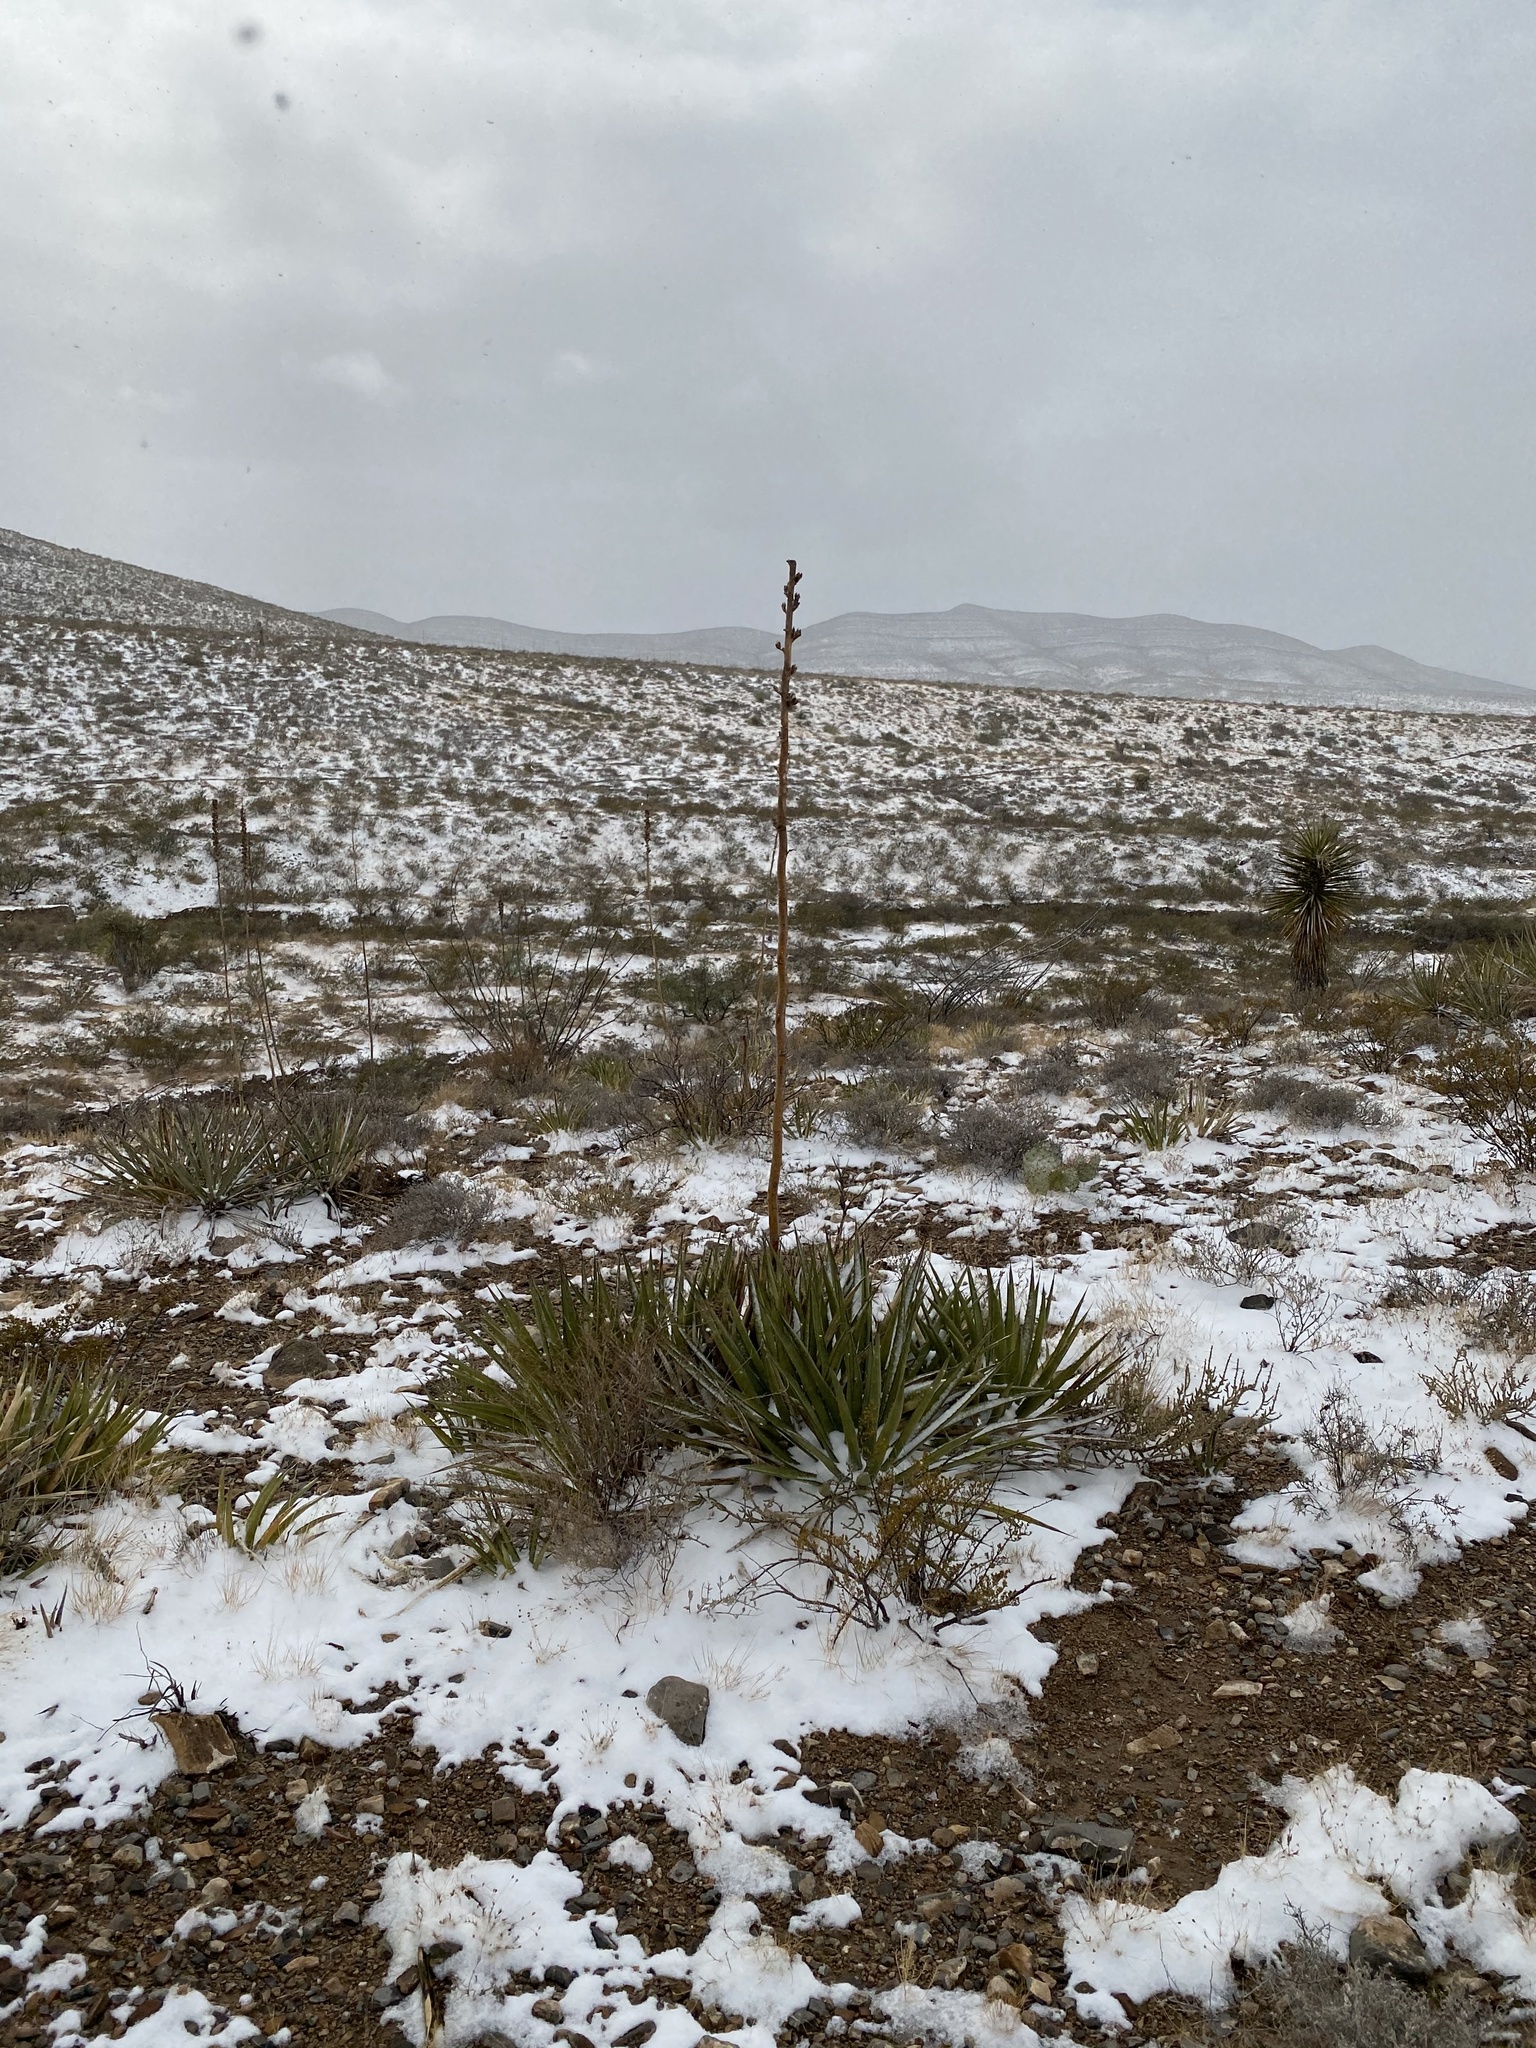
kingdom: Plantae
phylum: Tracheophyta
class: Liliopsida
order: Asparagales
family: Asparagaceae
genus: Agave
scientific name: Agave lechuguilla
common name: Lecheguilla agave
